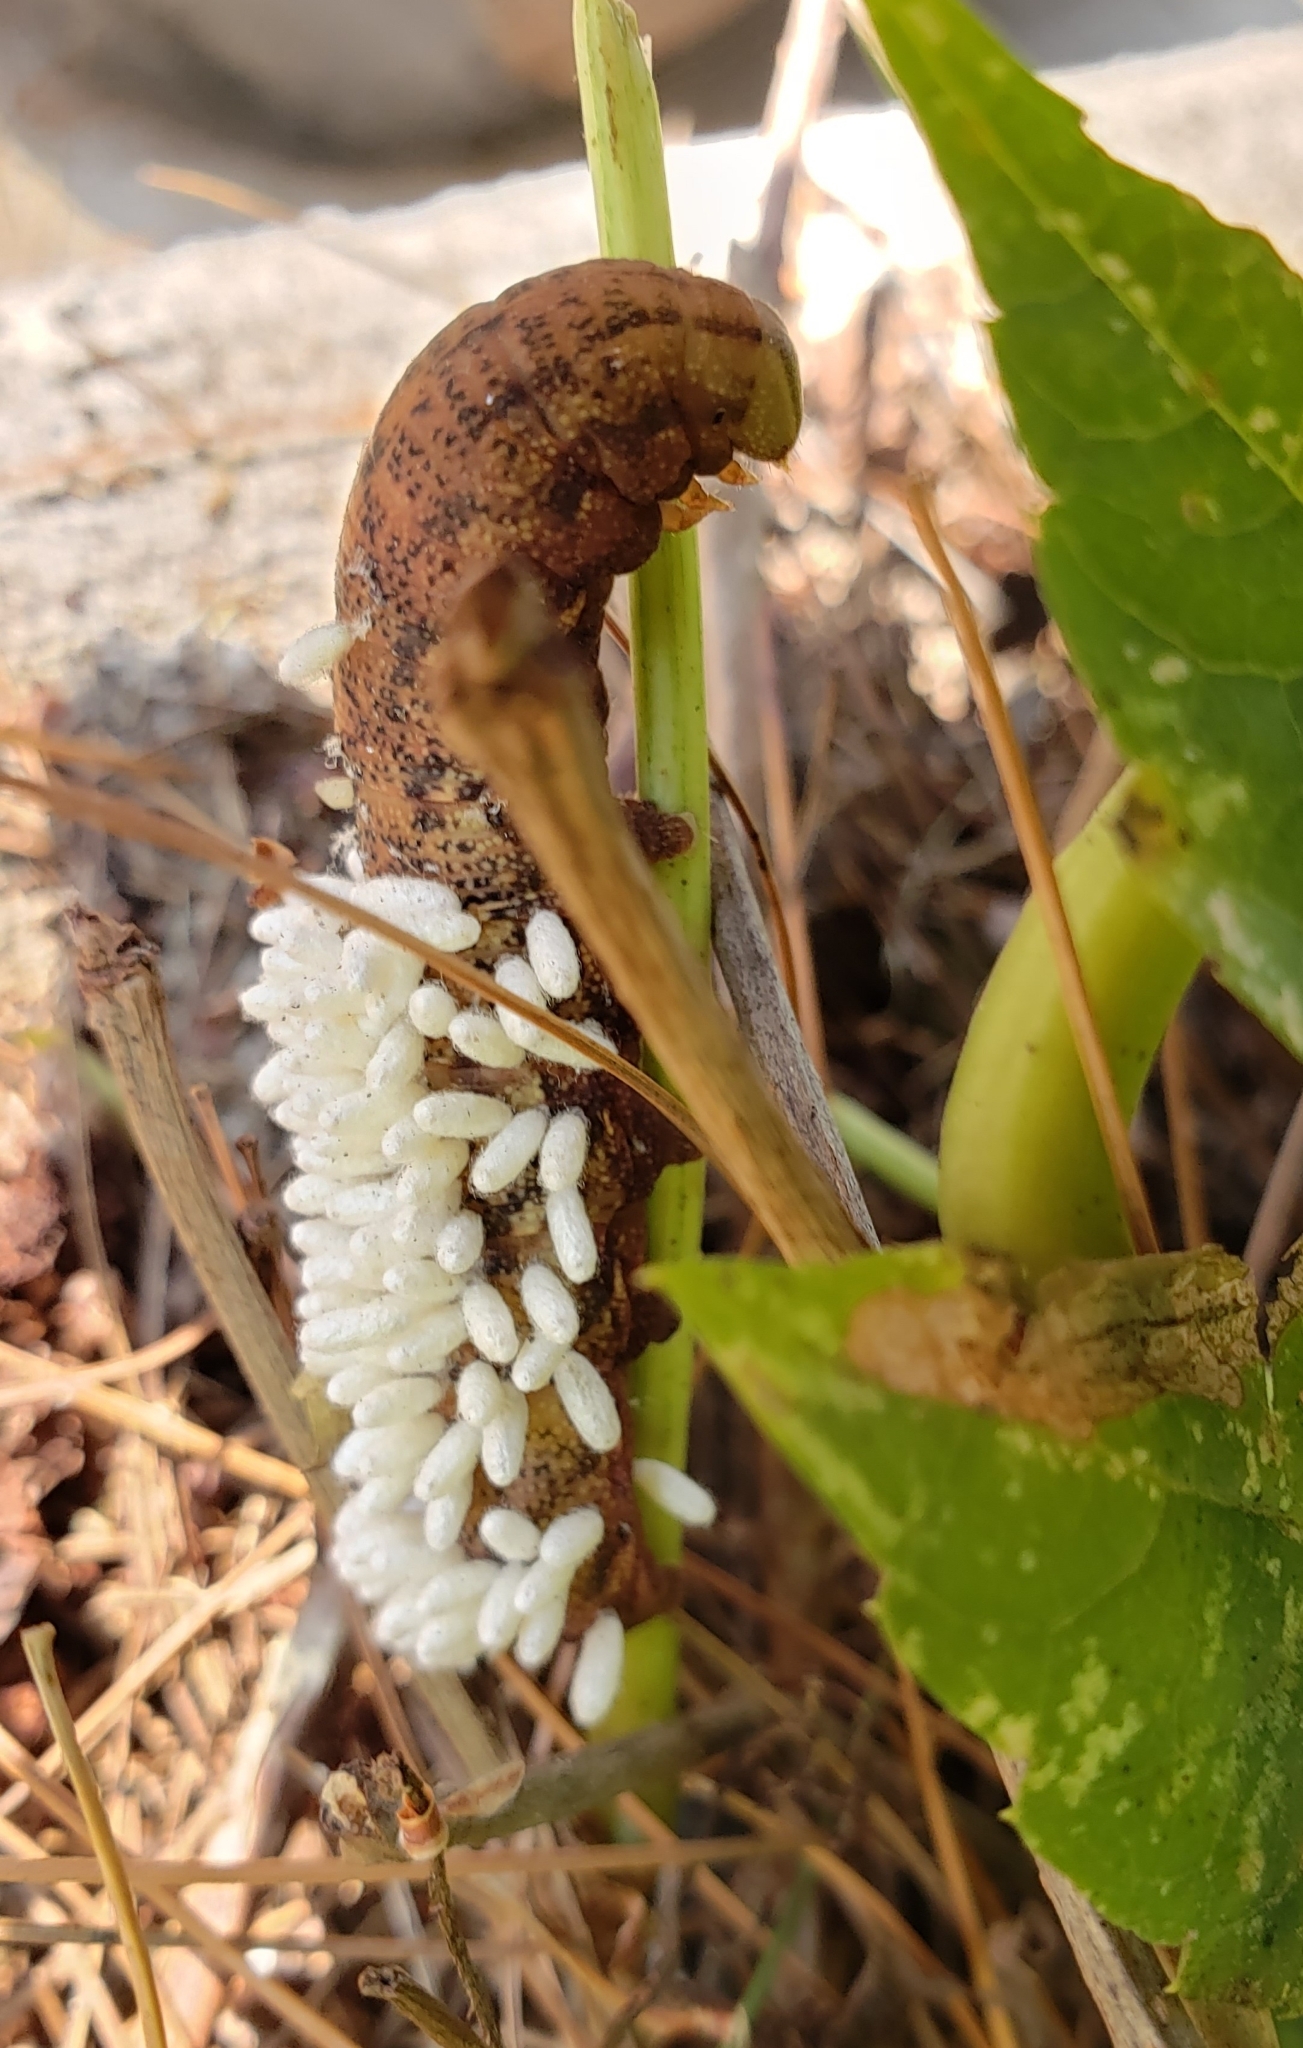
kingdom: Animalia
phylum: Arthropoda
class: Insecta
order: Lepidoptera
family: Sphingidae
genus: Amphion
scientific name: Amphion floridensis
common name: Nessus sphinx
